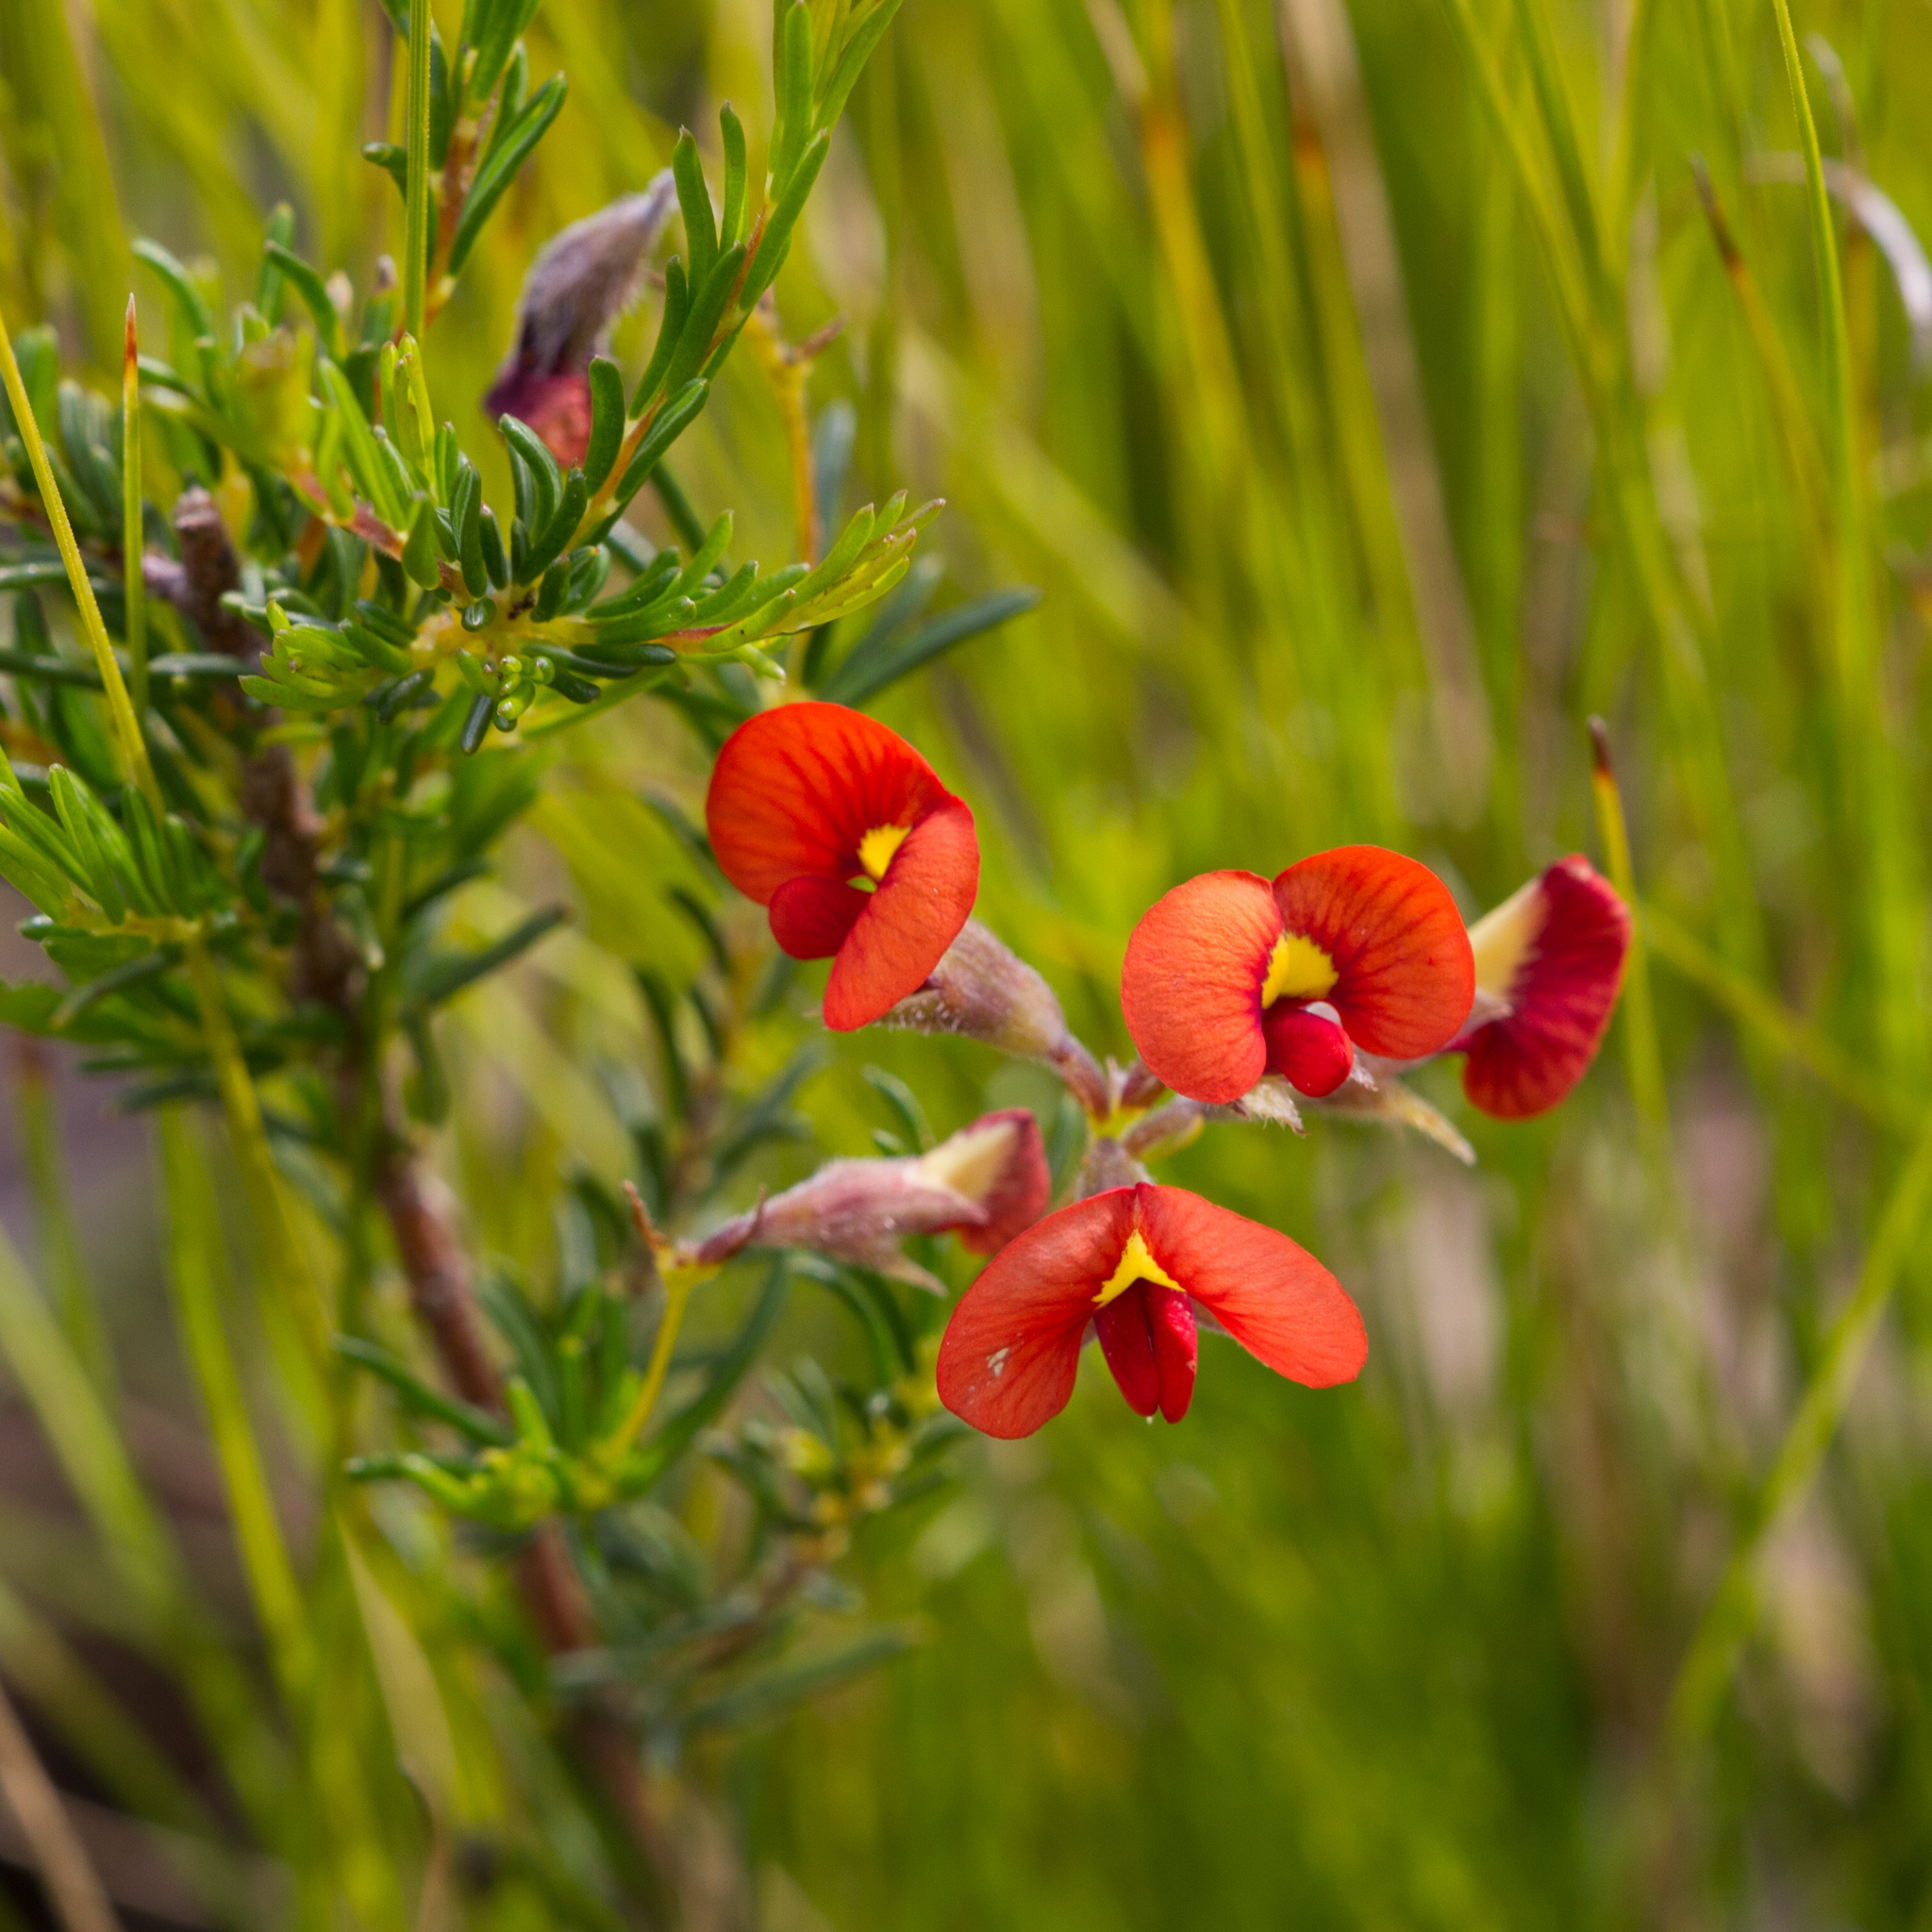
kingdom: Plantae
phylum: Tracheophyta
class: Magnoliopsida
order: Fabales
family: Fabaceae
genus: Dillwynia
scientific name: Dillwynia hispida
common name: Red parrot-pea
